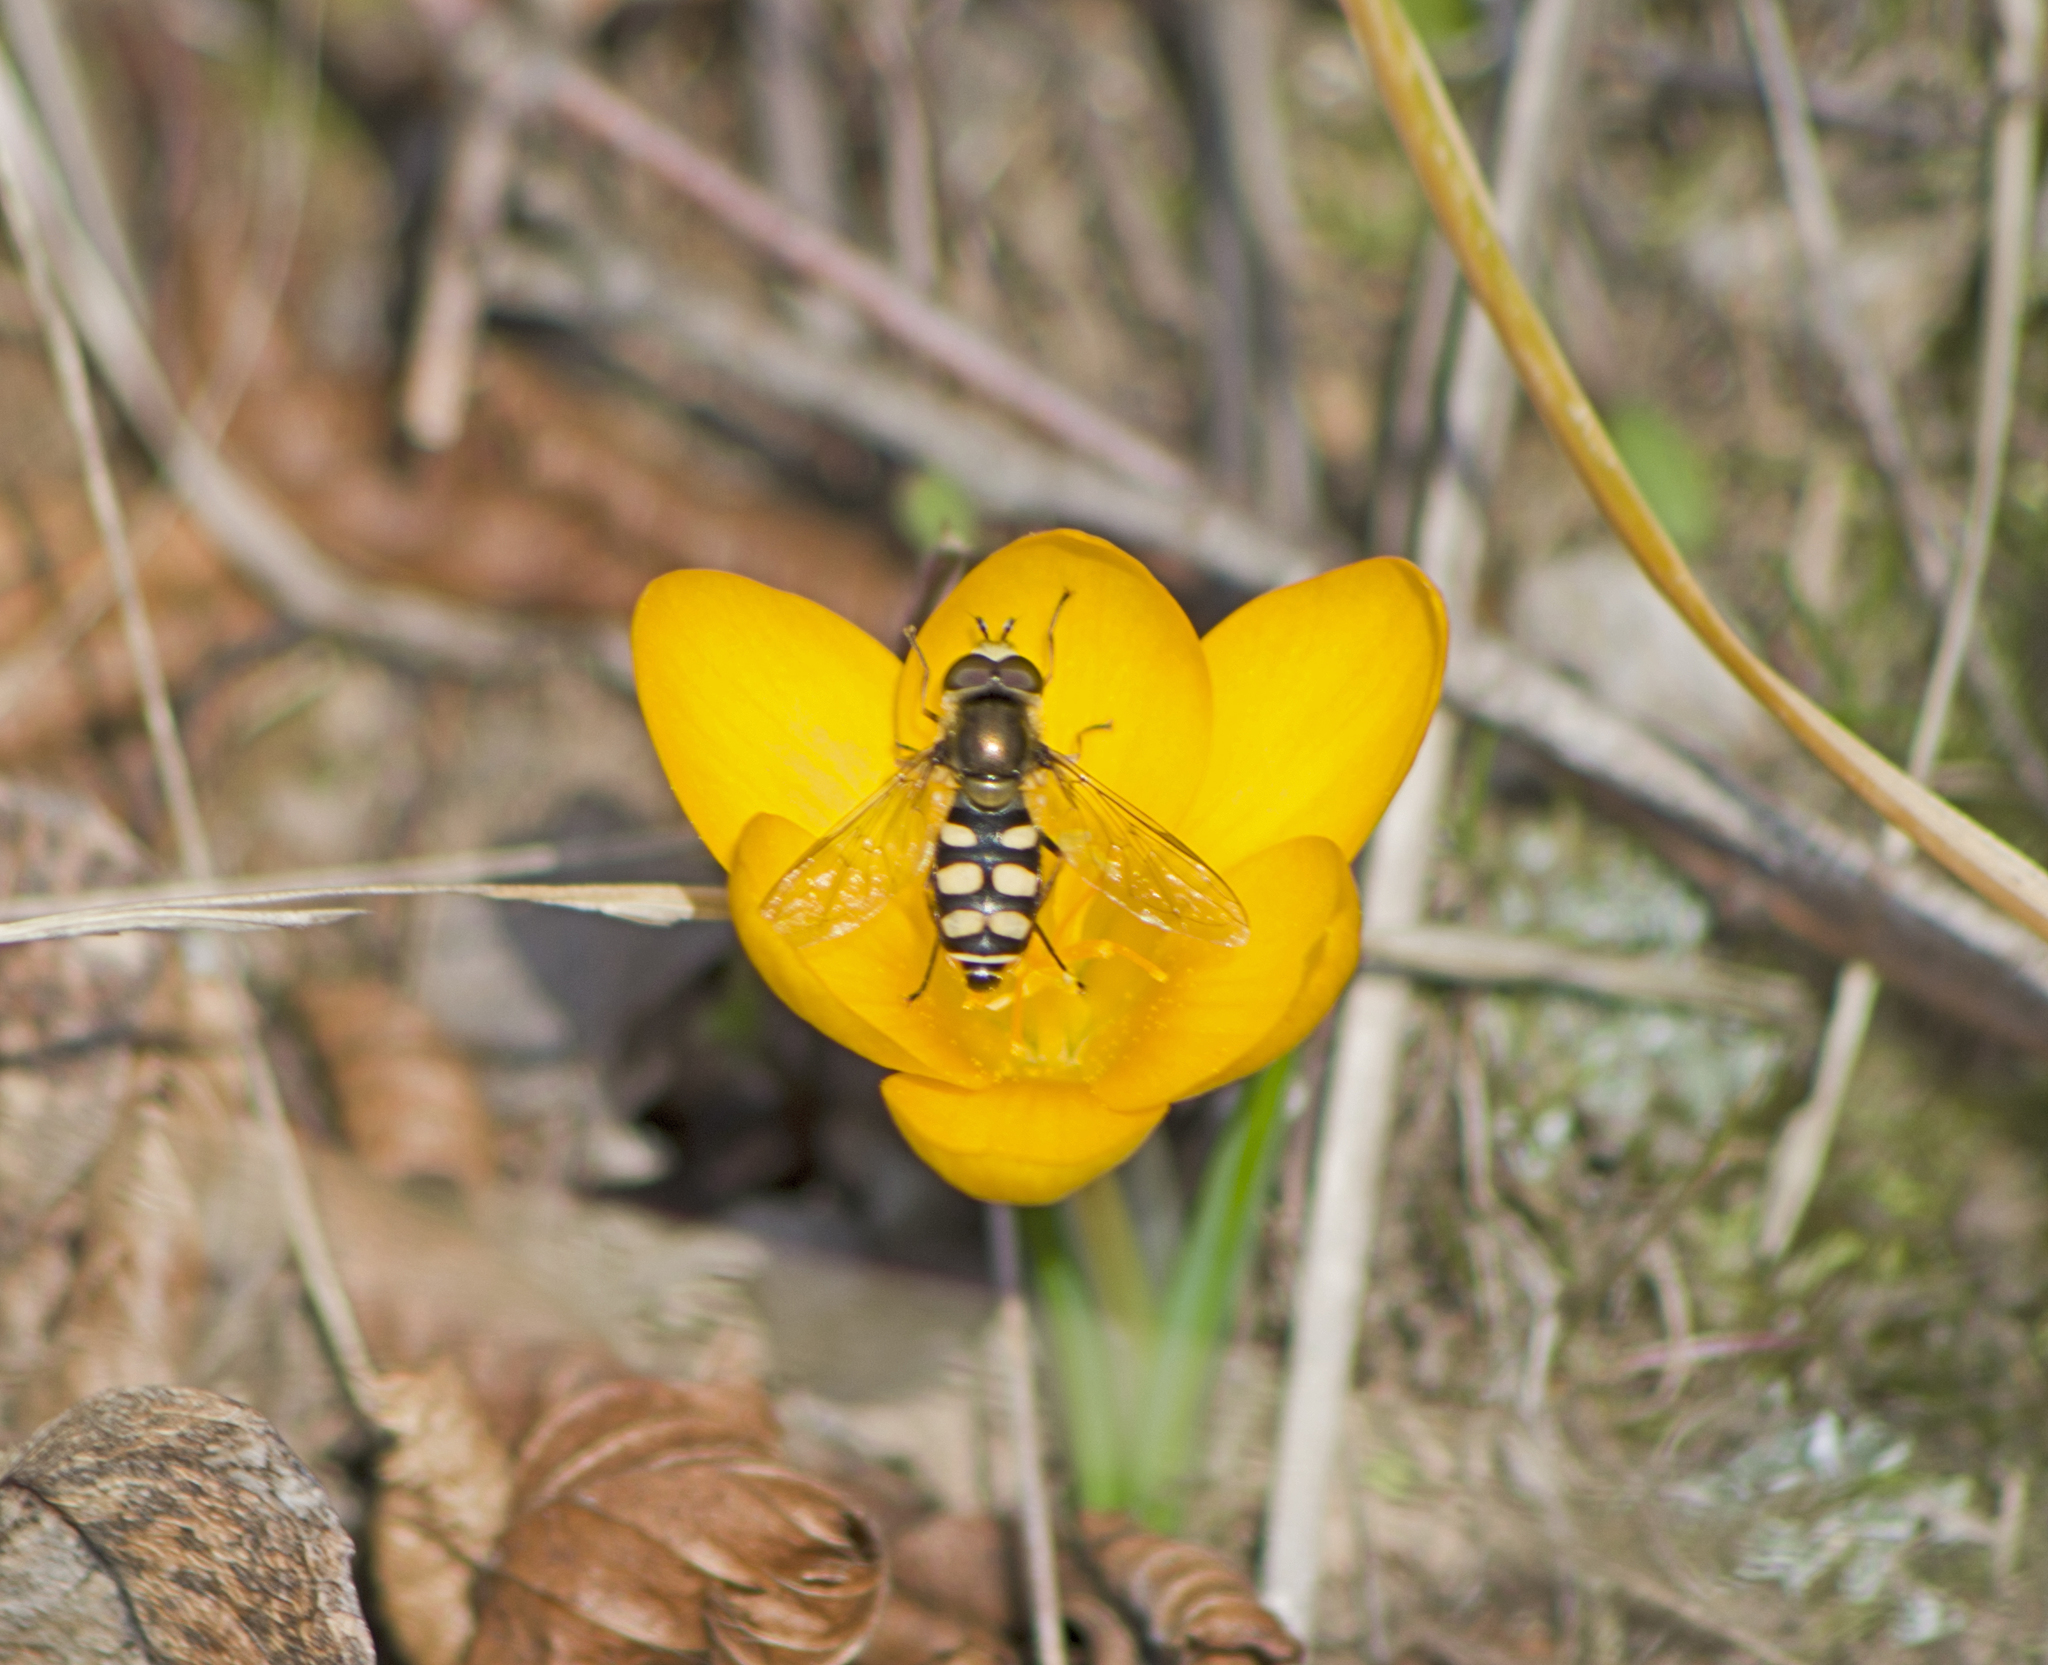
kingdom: Animalia
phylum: Arthropoda
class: Insecta
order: Diptera
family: Syrphidae
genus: Eupeodes
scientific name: Eupeodes corollae
